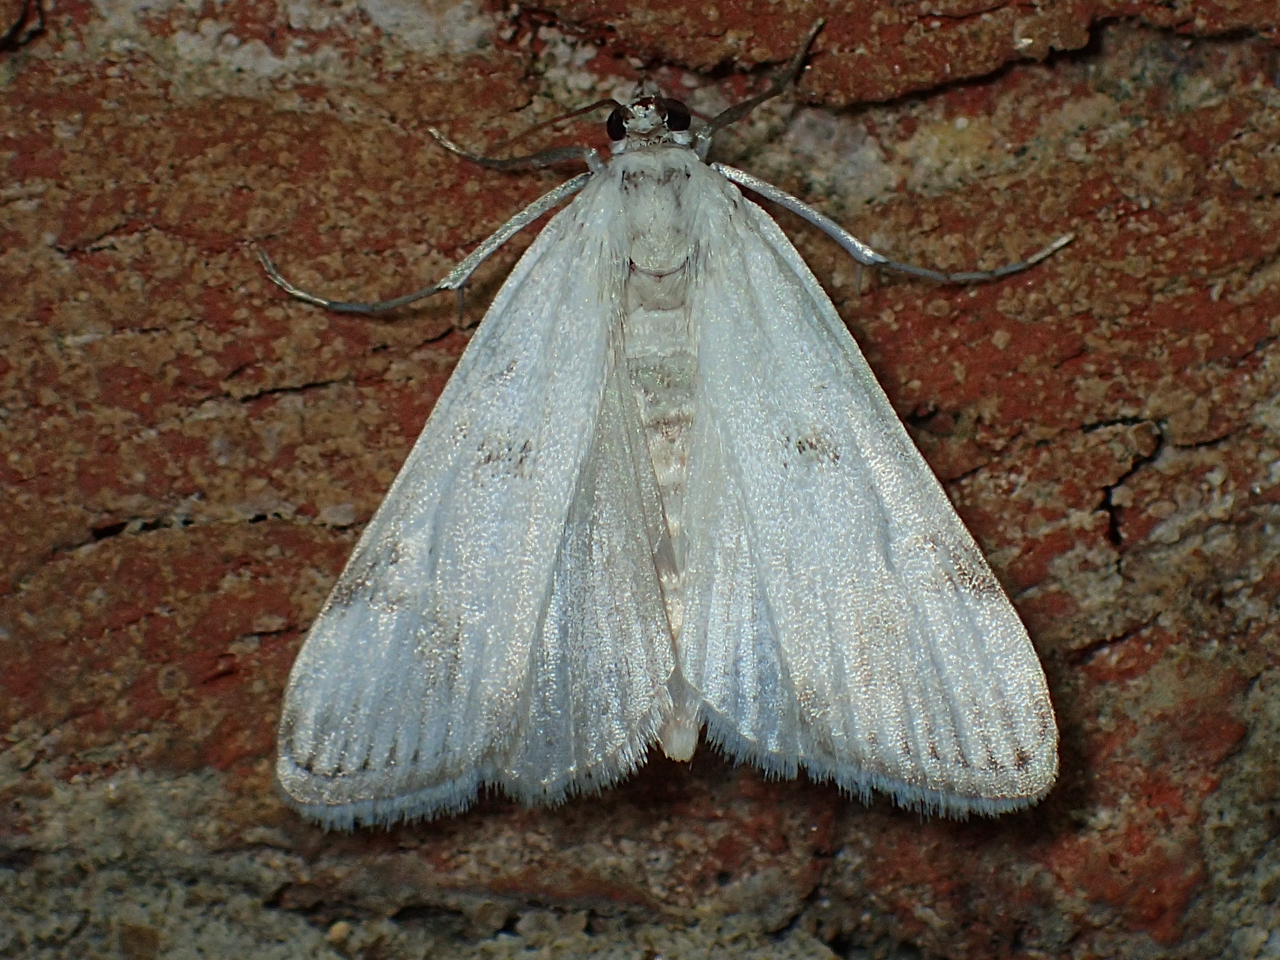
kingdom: Animalia
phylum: Arthropoda
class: Insecta
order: Lepidoptera
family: Crambidae
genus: Parapoynx
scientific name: Parapoynx maculalis
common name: Polymorphic pondweed moth
